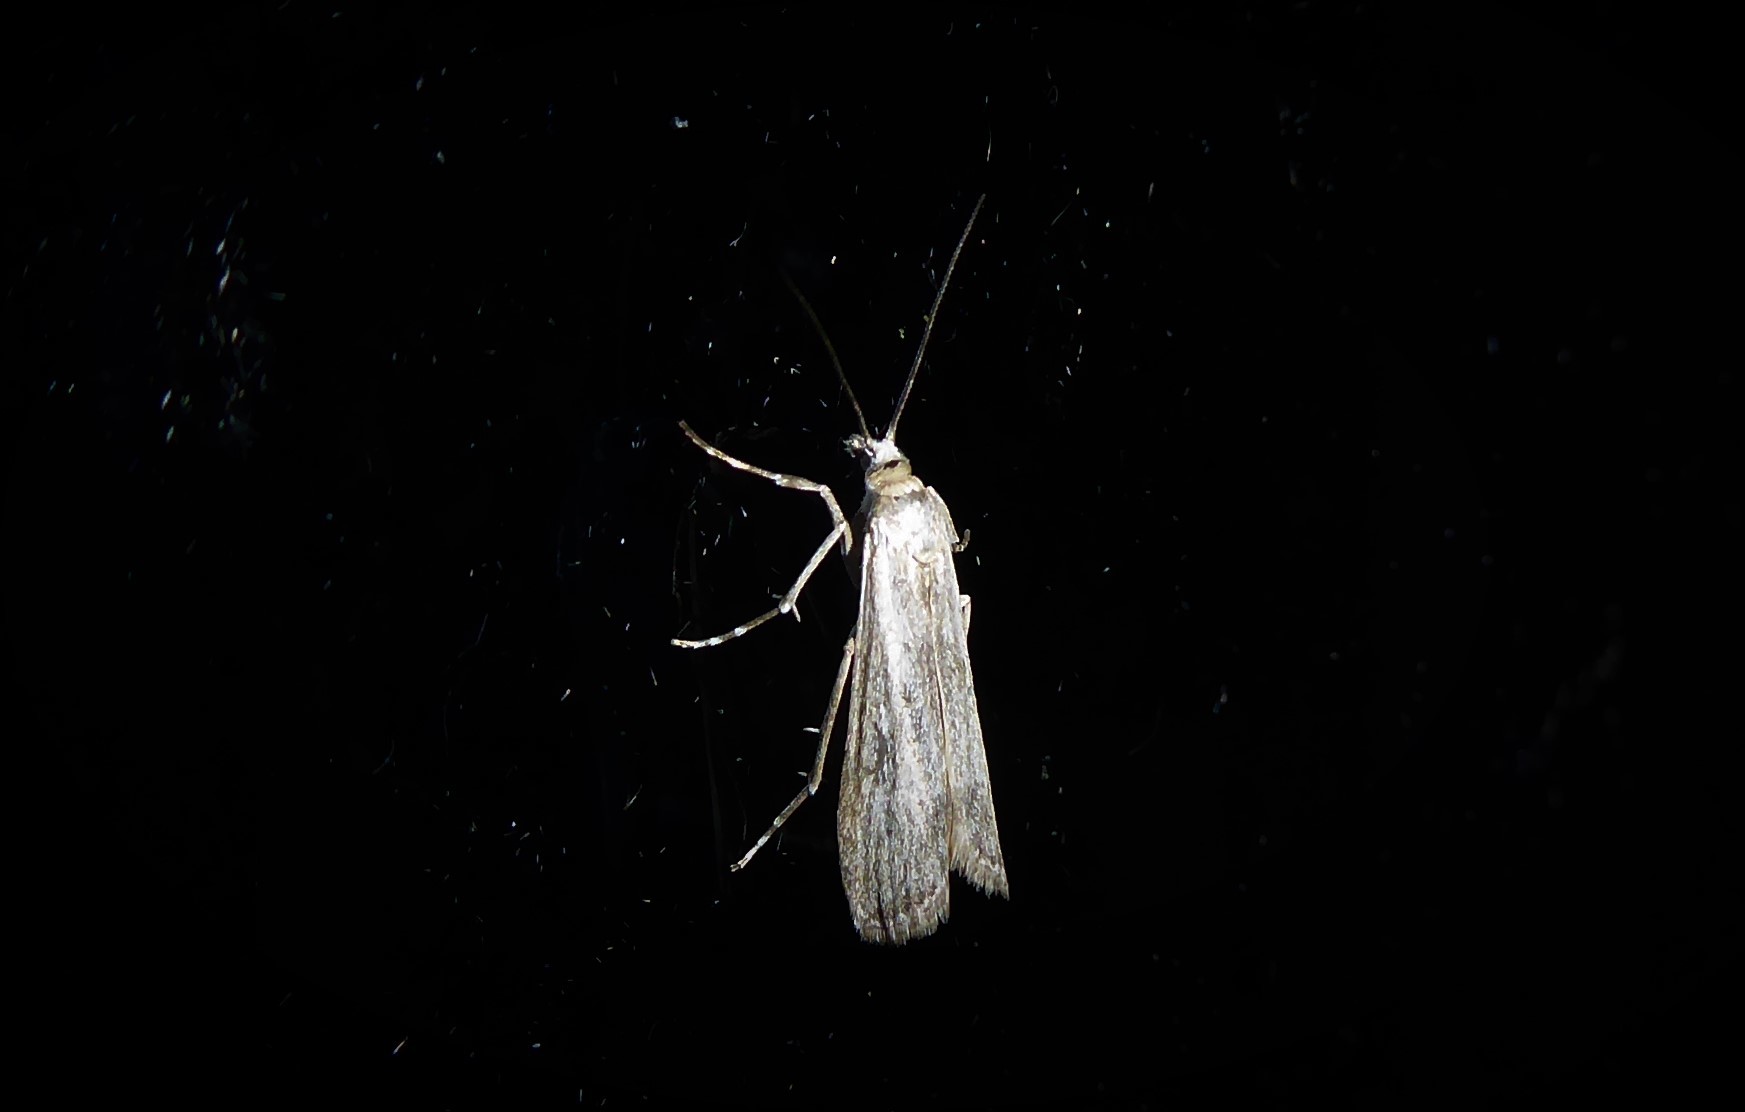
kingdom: Animalia
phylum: Arthropoda
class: Insecta
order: Lepidoptera
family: Crambidae
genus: Eudonia
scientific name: Eudonia leptalea
